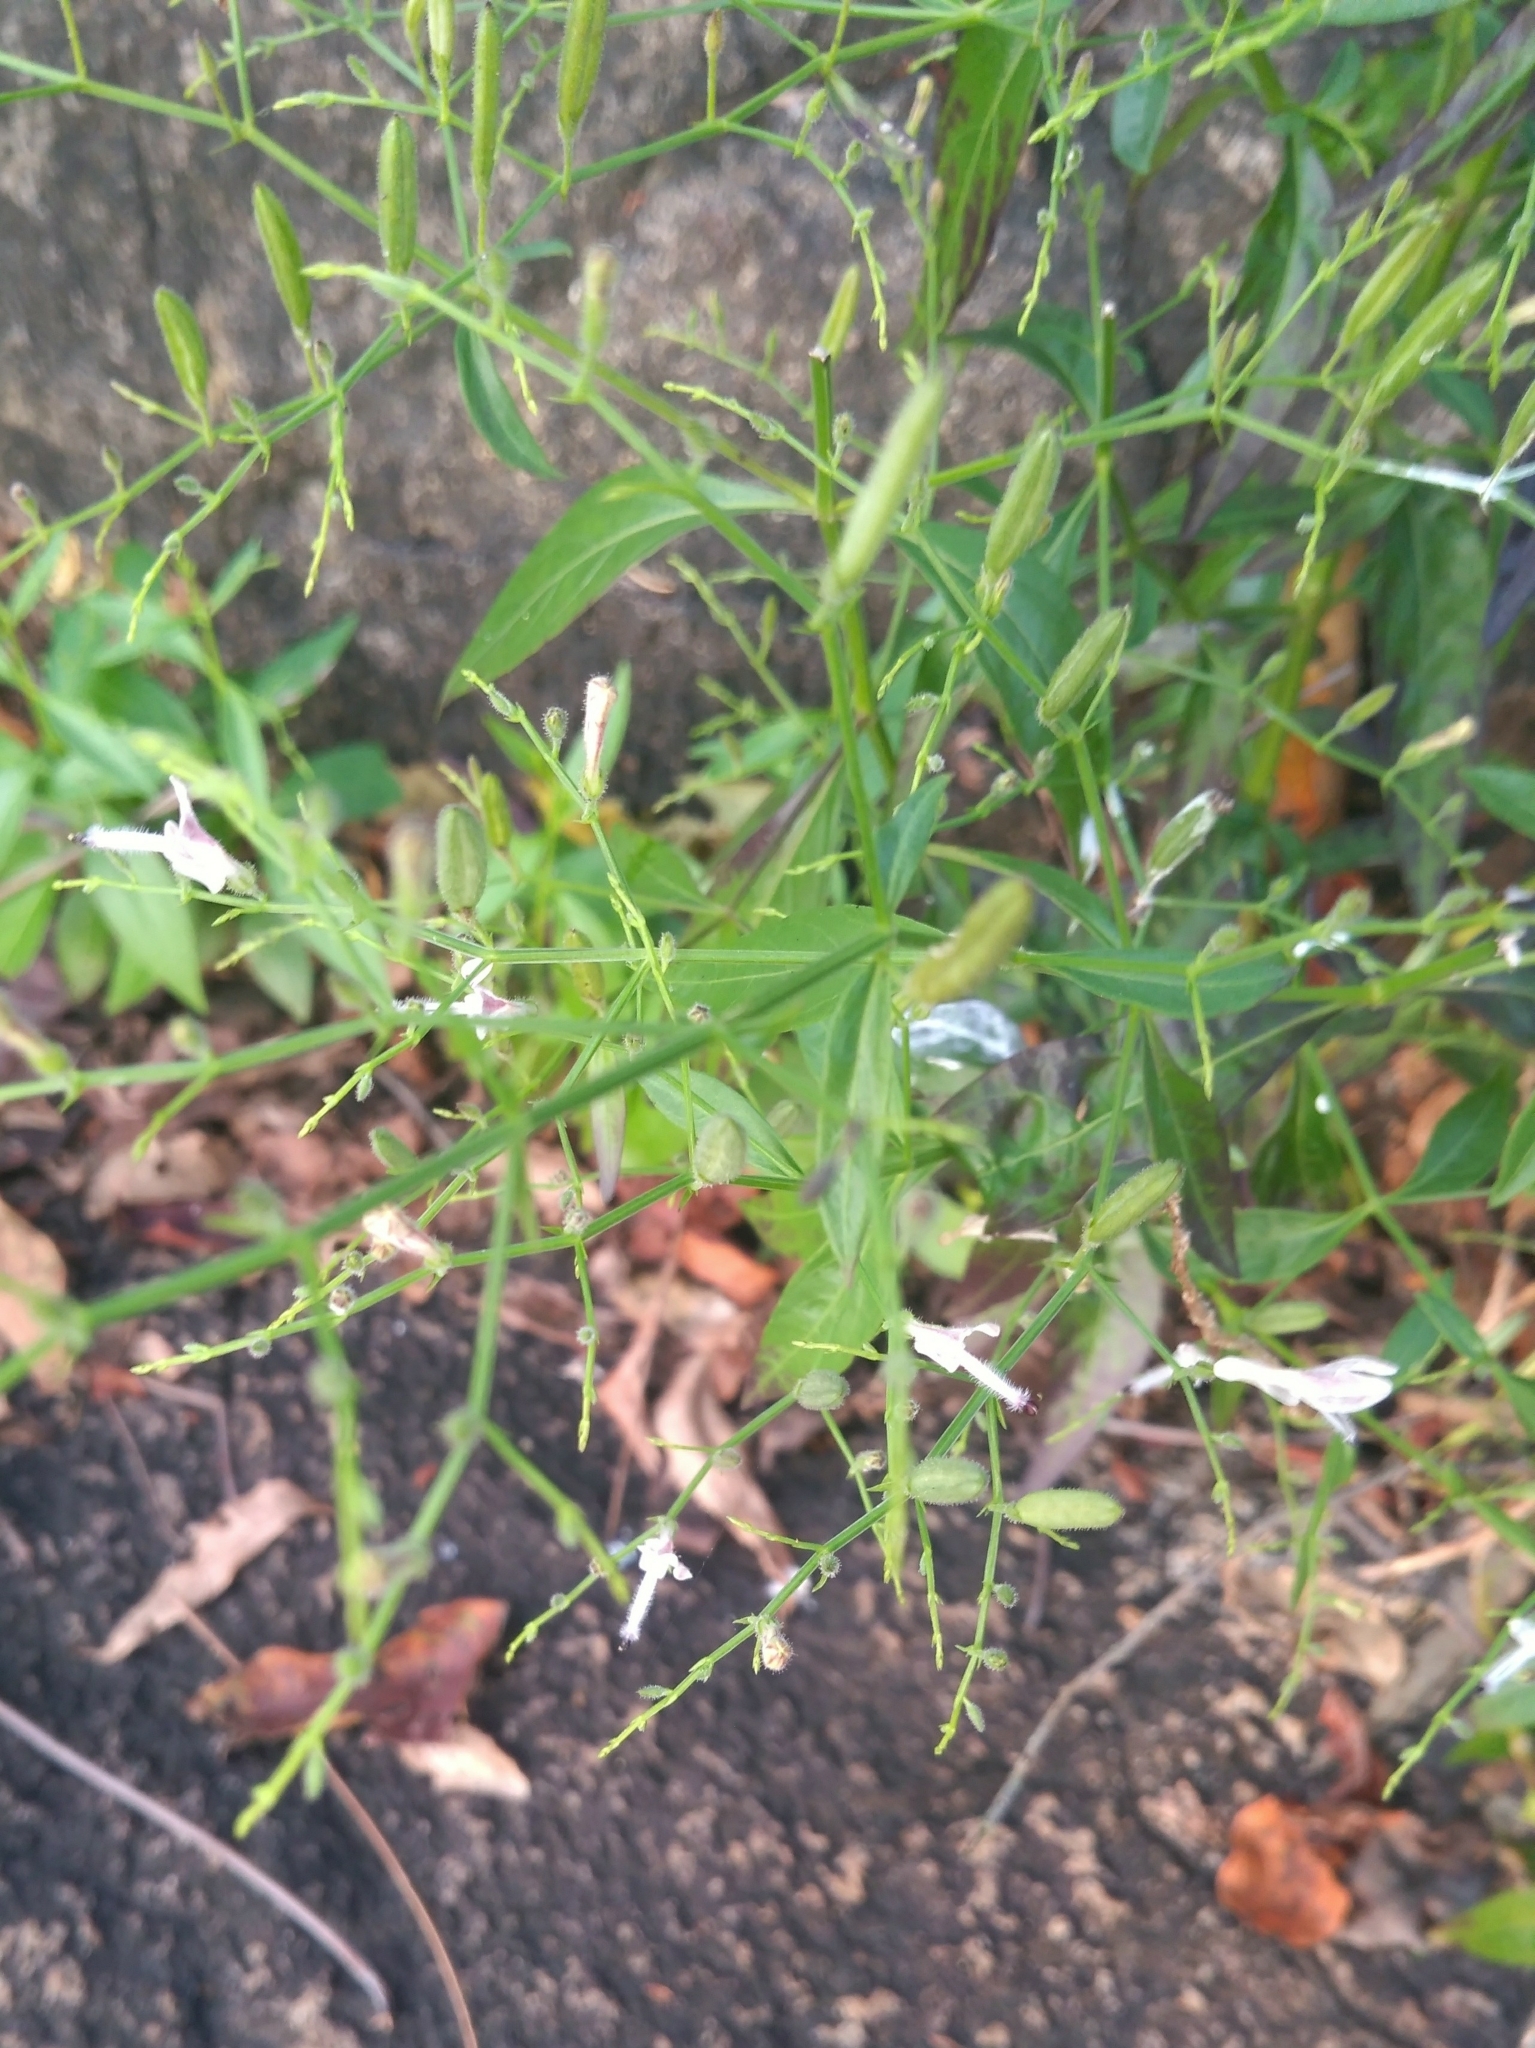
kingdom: Plantae
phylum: Tracheophyta
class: Magnoliopsida
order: Lamiales
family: Acanthaceae
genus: Andrographis
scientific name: Andrographis paniculata
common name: Green chireta
